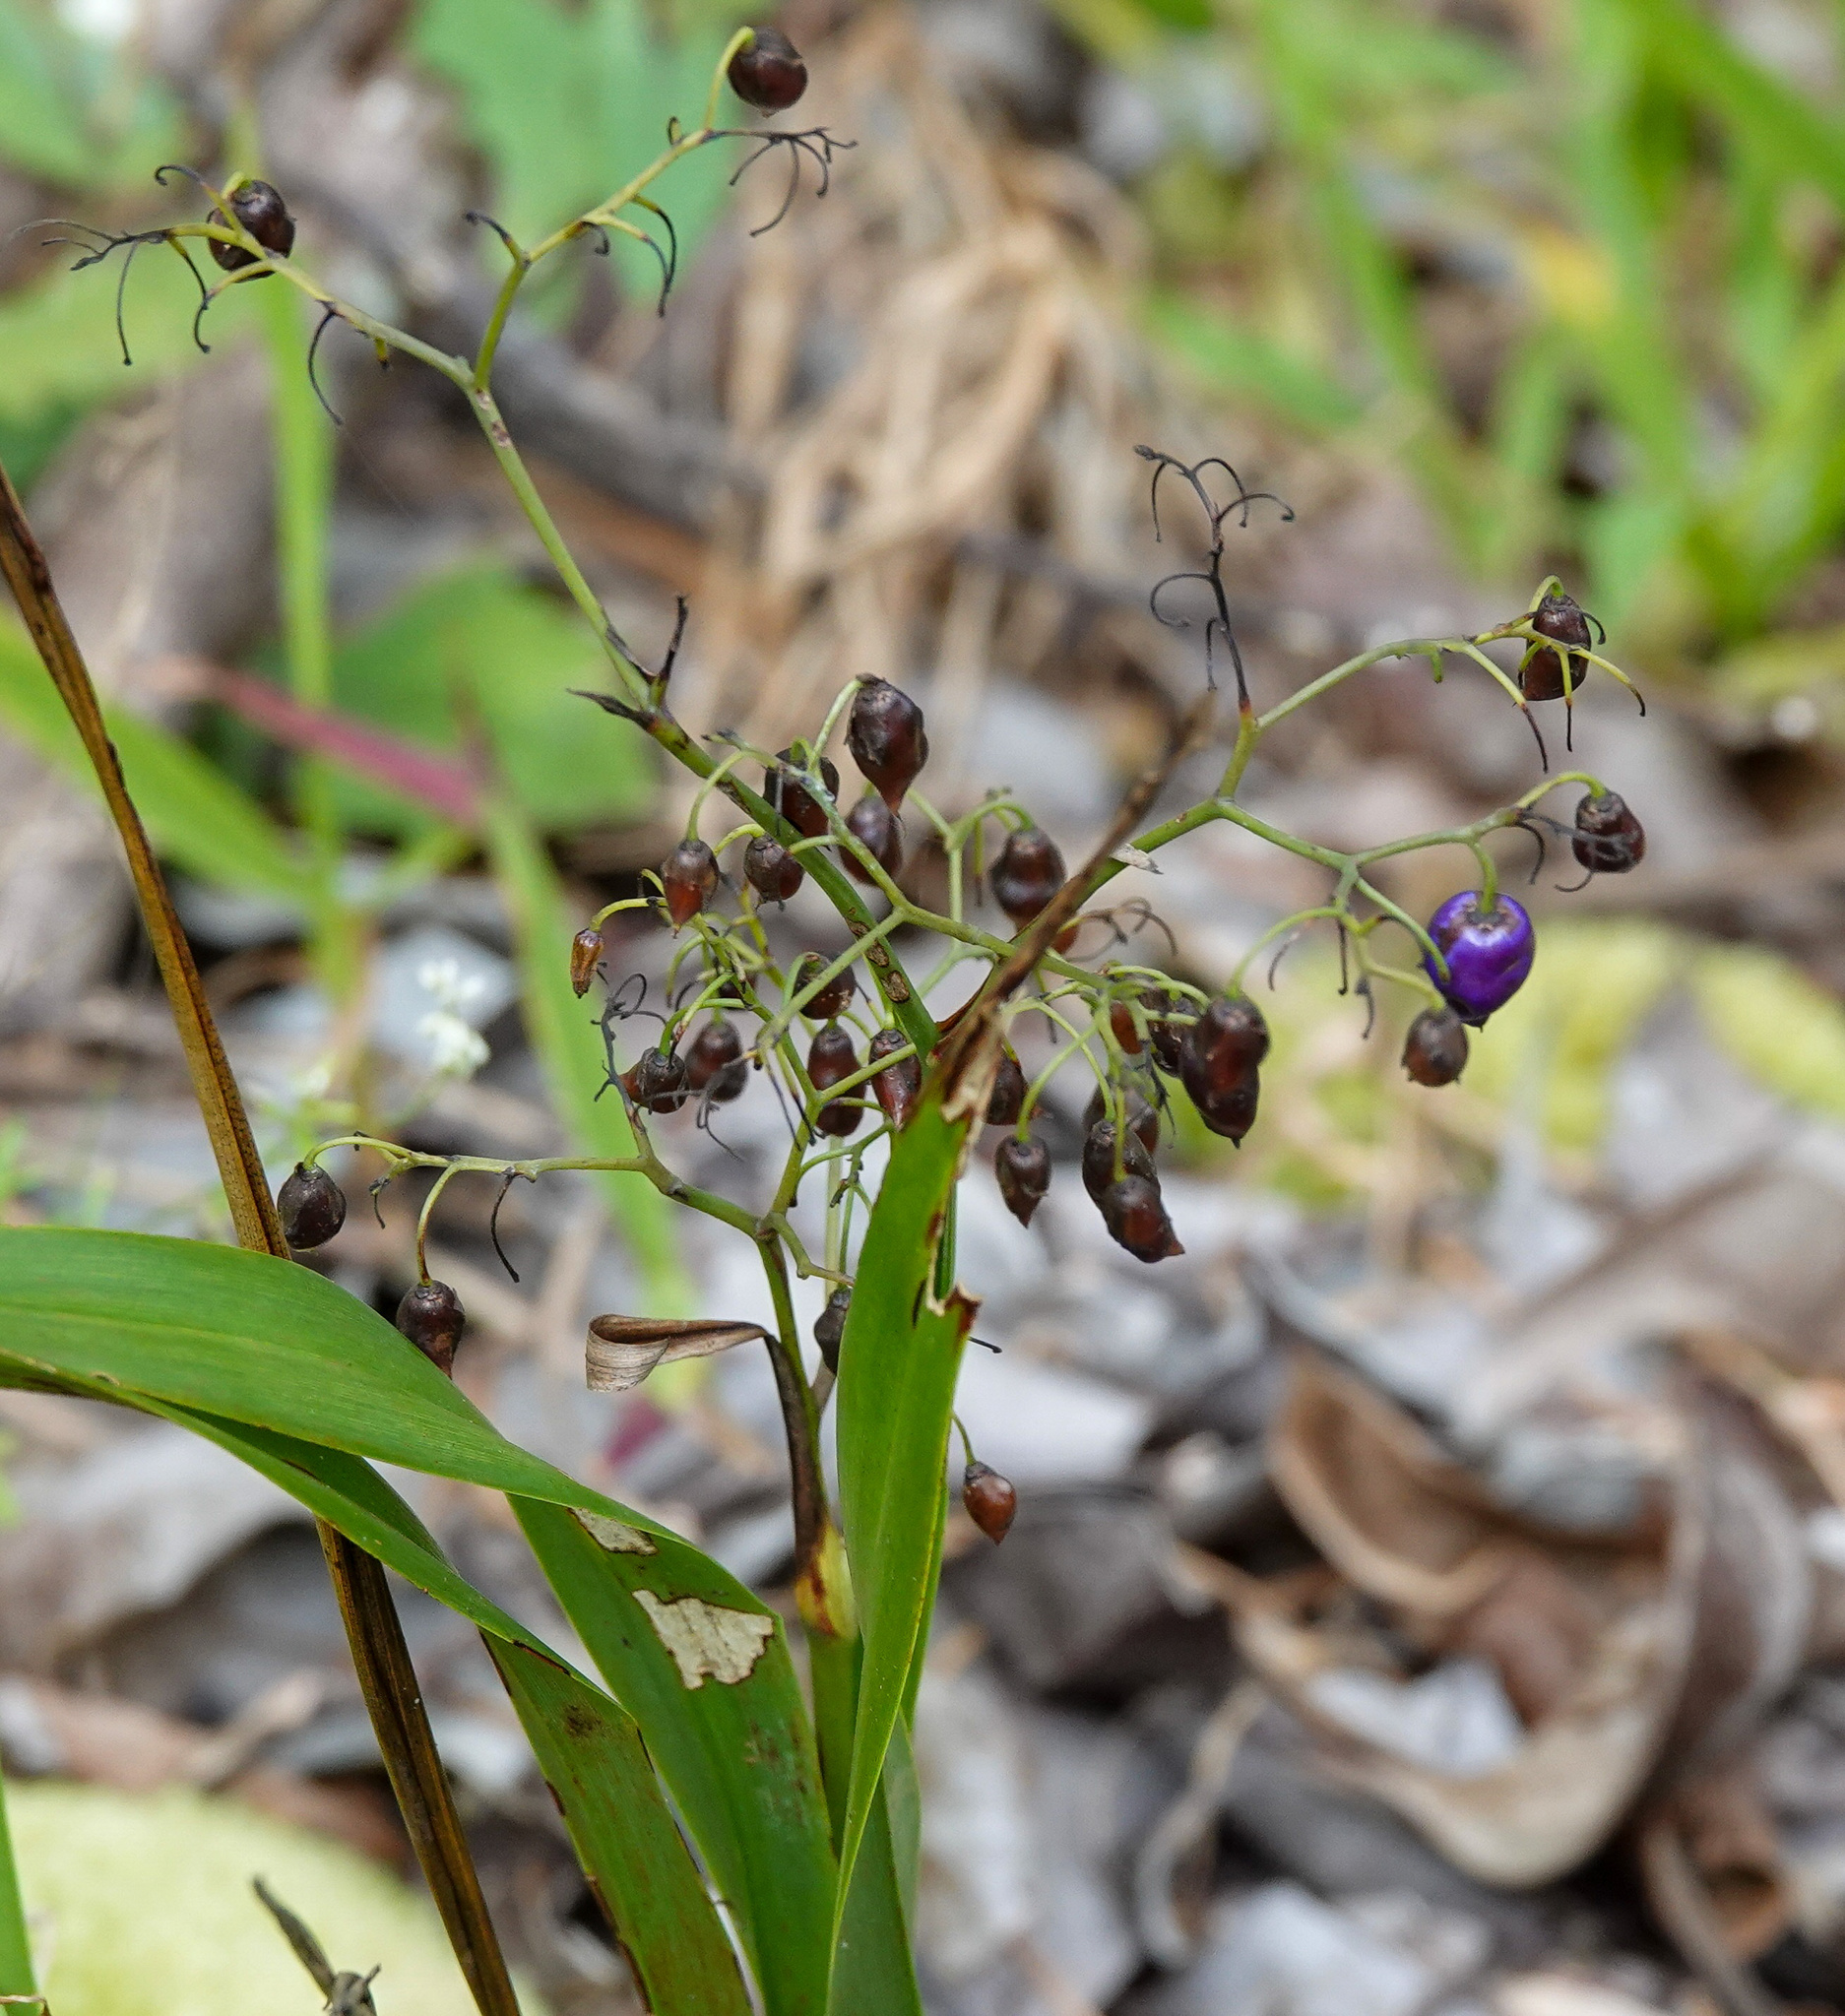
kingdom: Plantae
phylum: Tracheophyta
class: Liliopsida
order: Asparagales
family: Asphodelaceae
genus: Dianella
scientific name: Dianella sandwicensis
